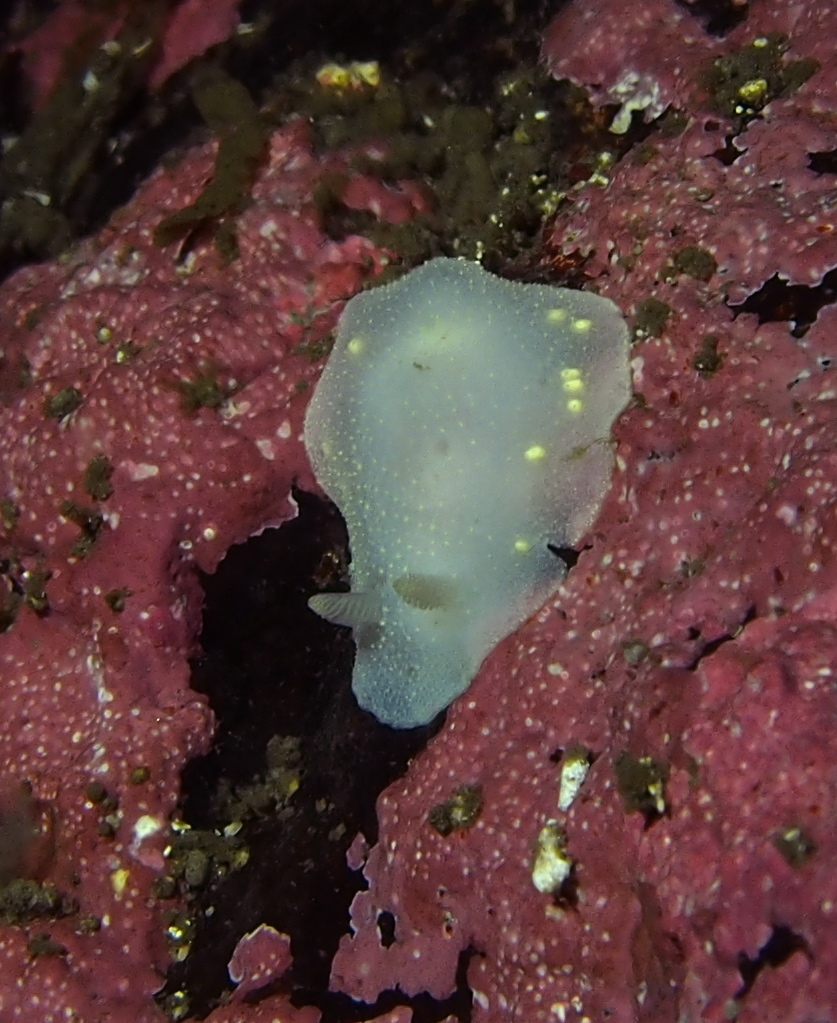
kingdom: Animalia
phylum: Mollusca
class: Gastropoda
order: Nudibranchia
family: Cadlinidae
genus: Cadlina
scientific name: Cadlina laevis
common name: White atlantic cadlina
